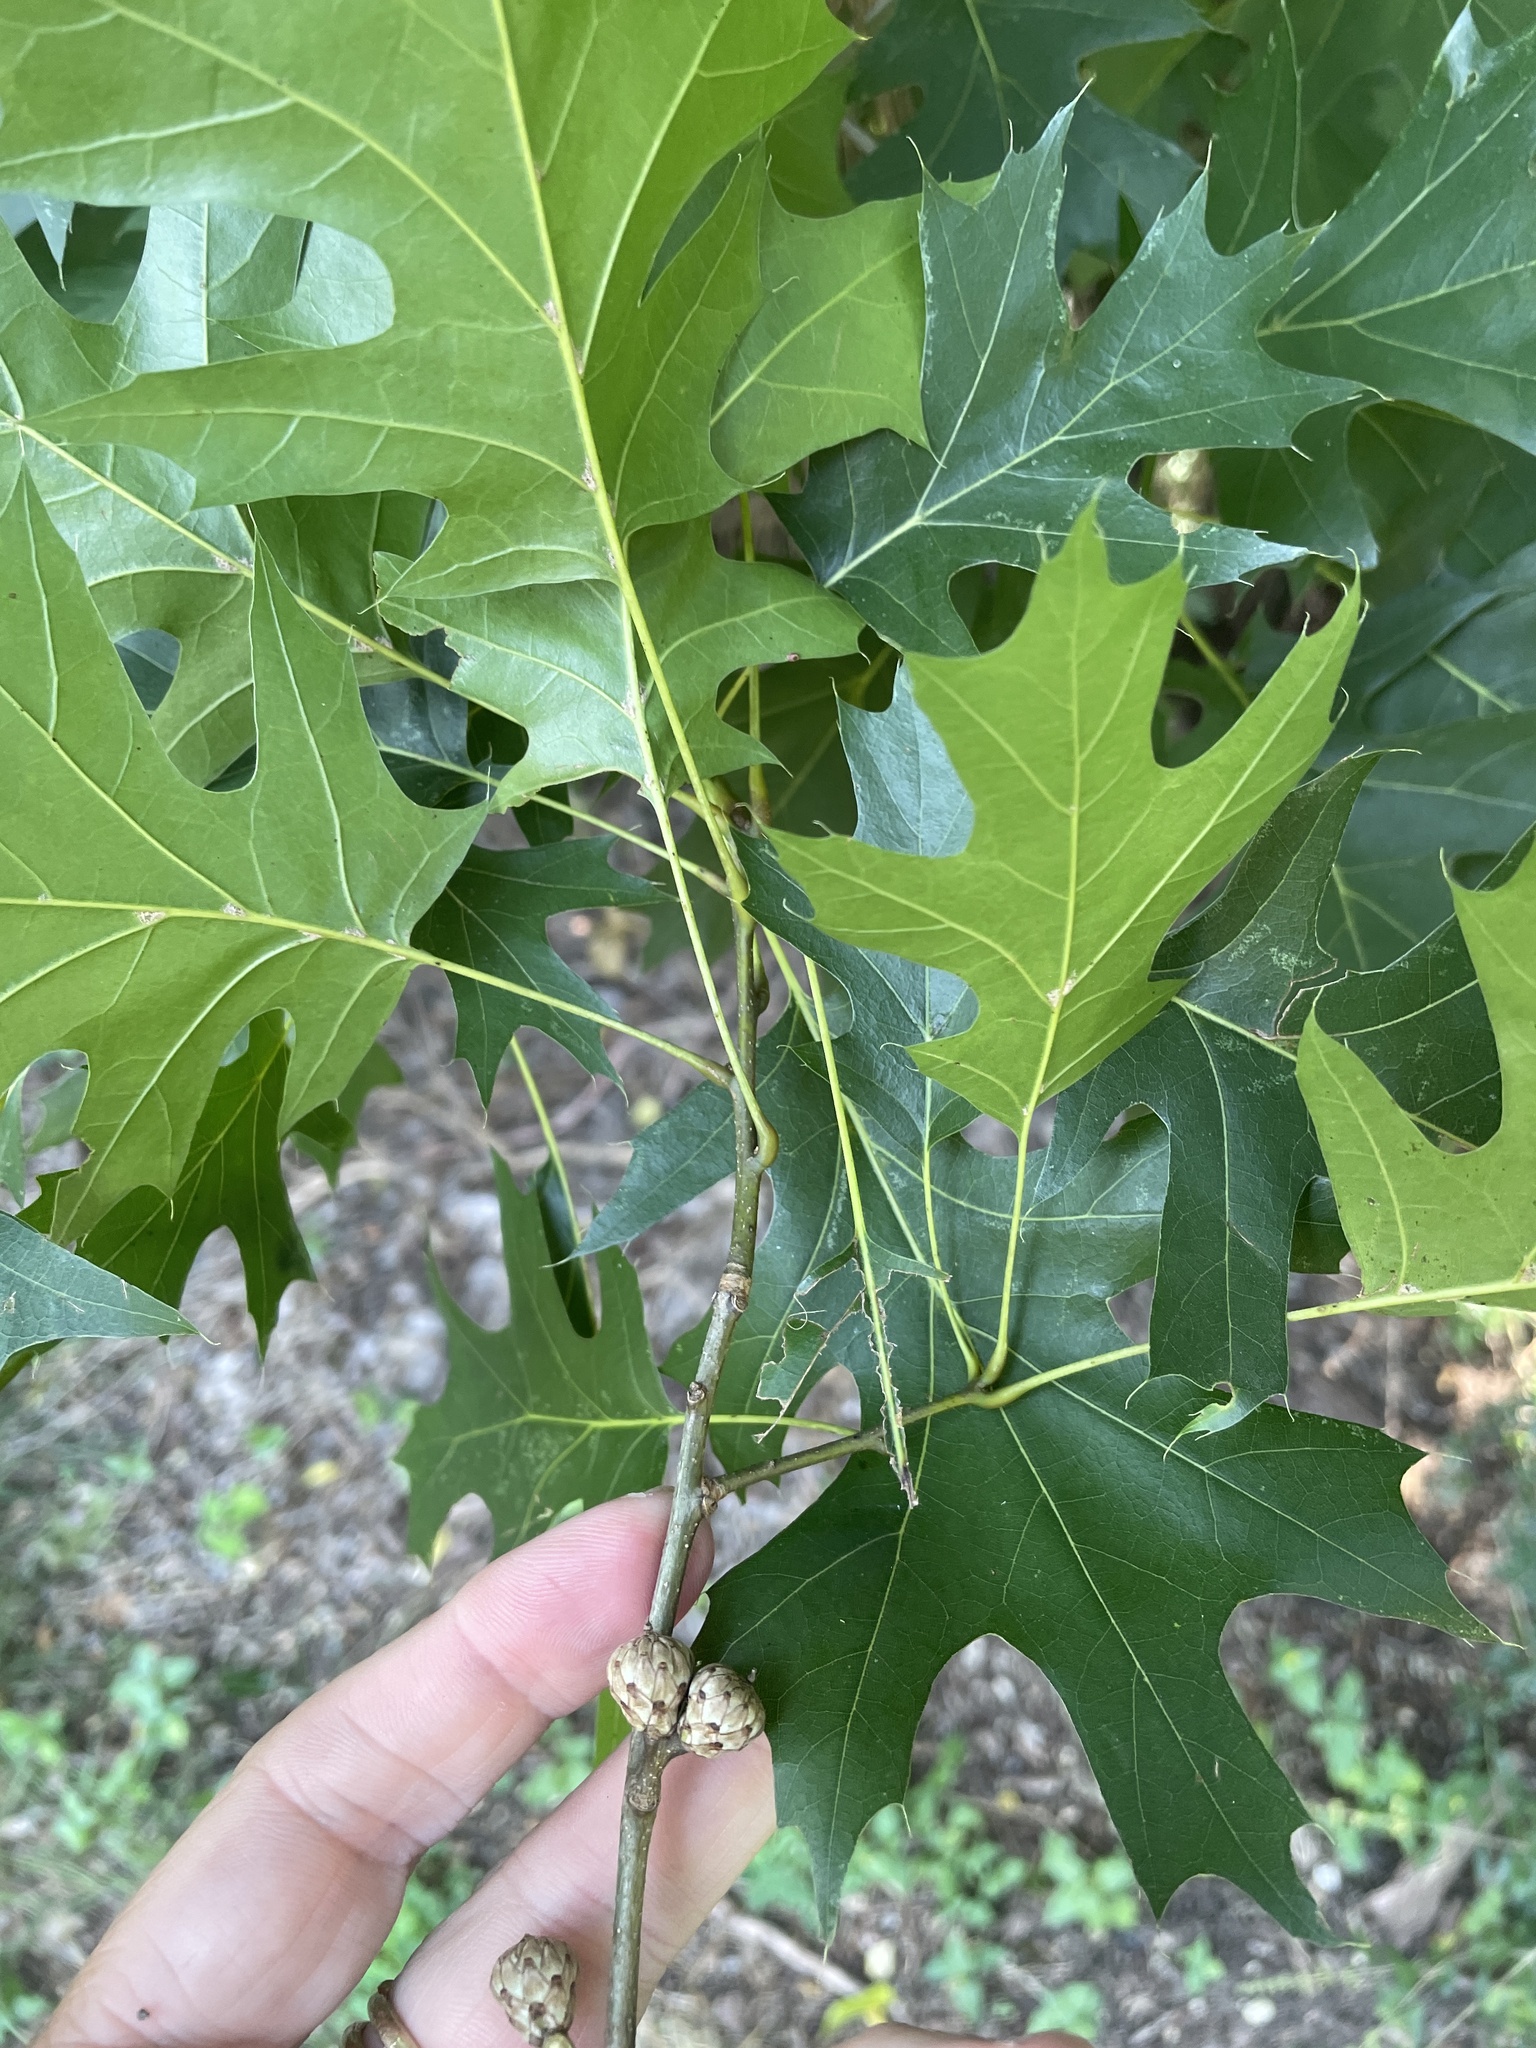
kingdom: Plantae
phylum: Tracheophyta
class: Magnoliopsida
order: Fagales
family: Fagaceae
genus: Quercus
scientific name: Quercus shumardii
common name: Shumard oak
